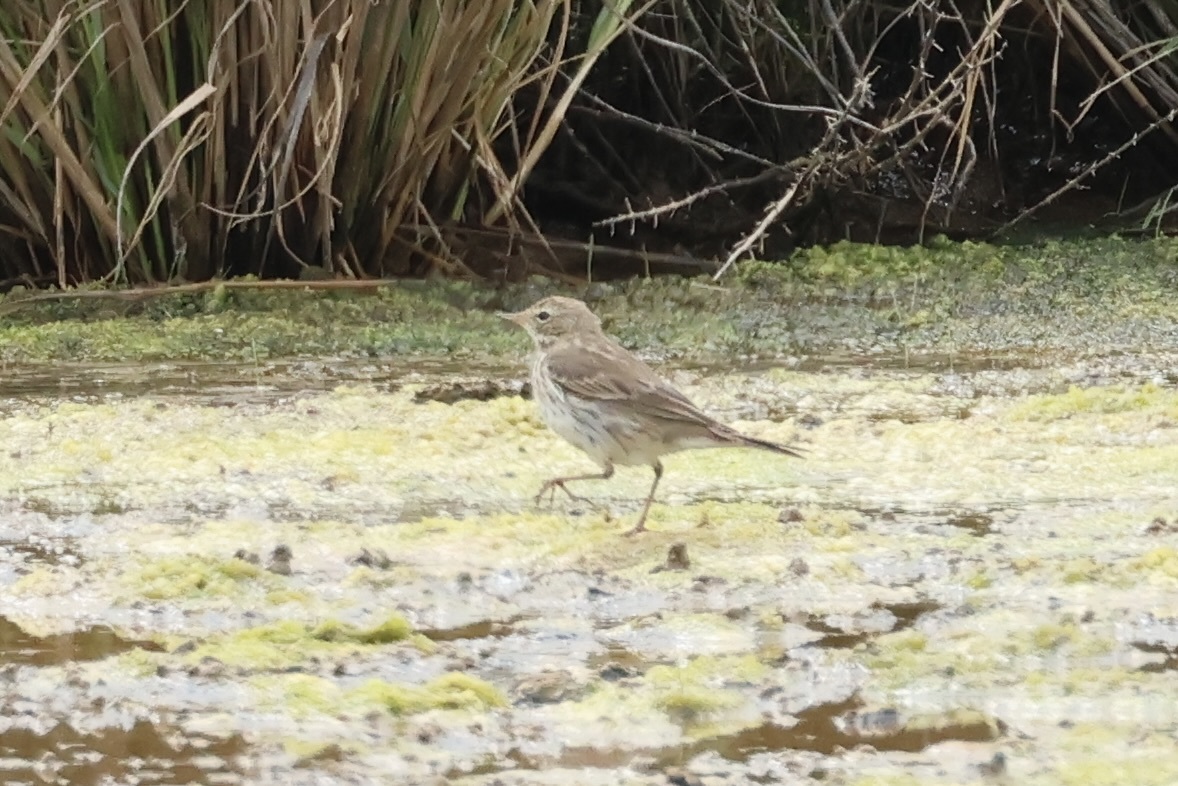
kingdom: Animalia
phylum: Chordata
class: Aves
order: Passeriformes
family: Motacillidae
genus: Anthus
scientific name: Anthus spinoletta
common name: Water pipit
